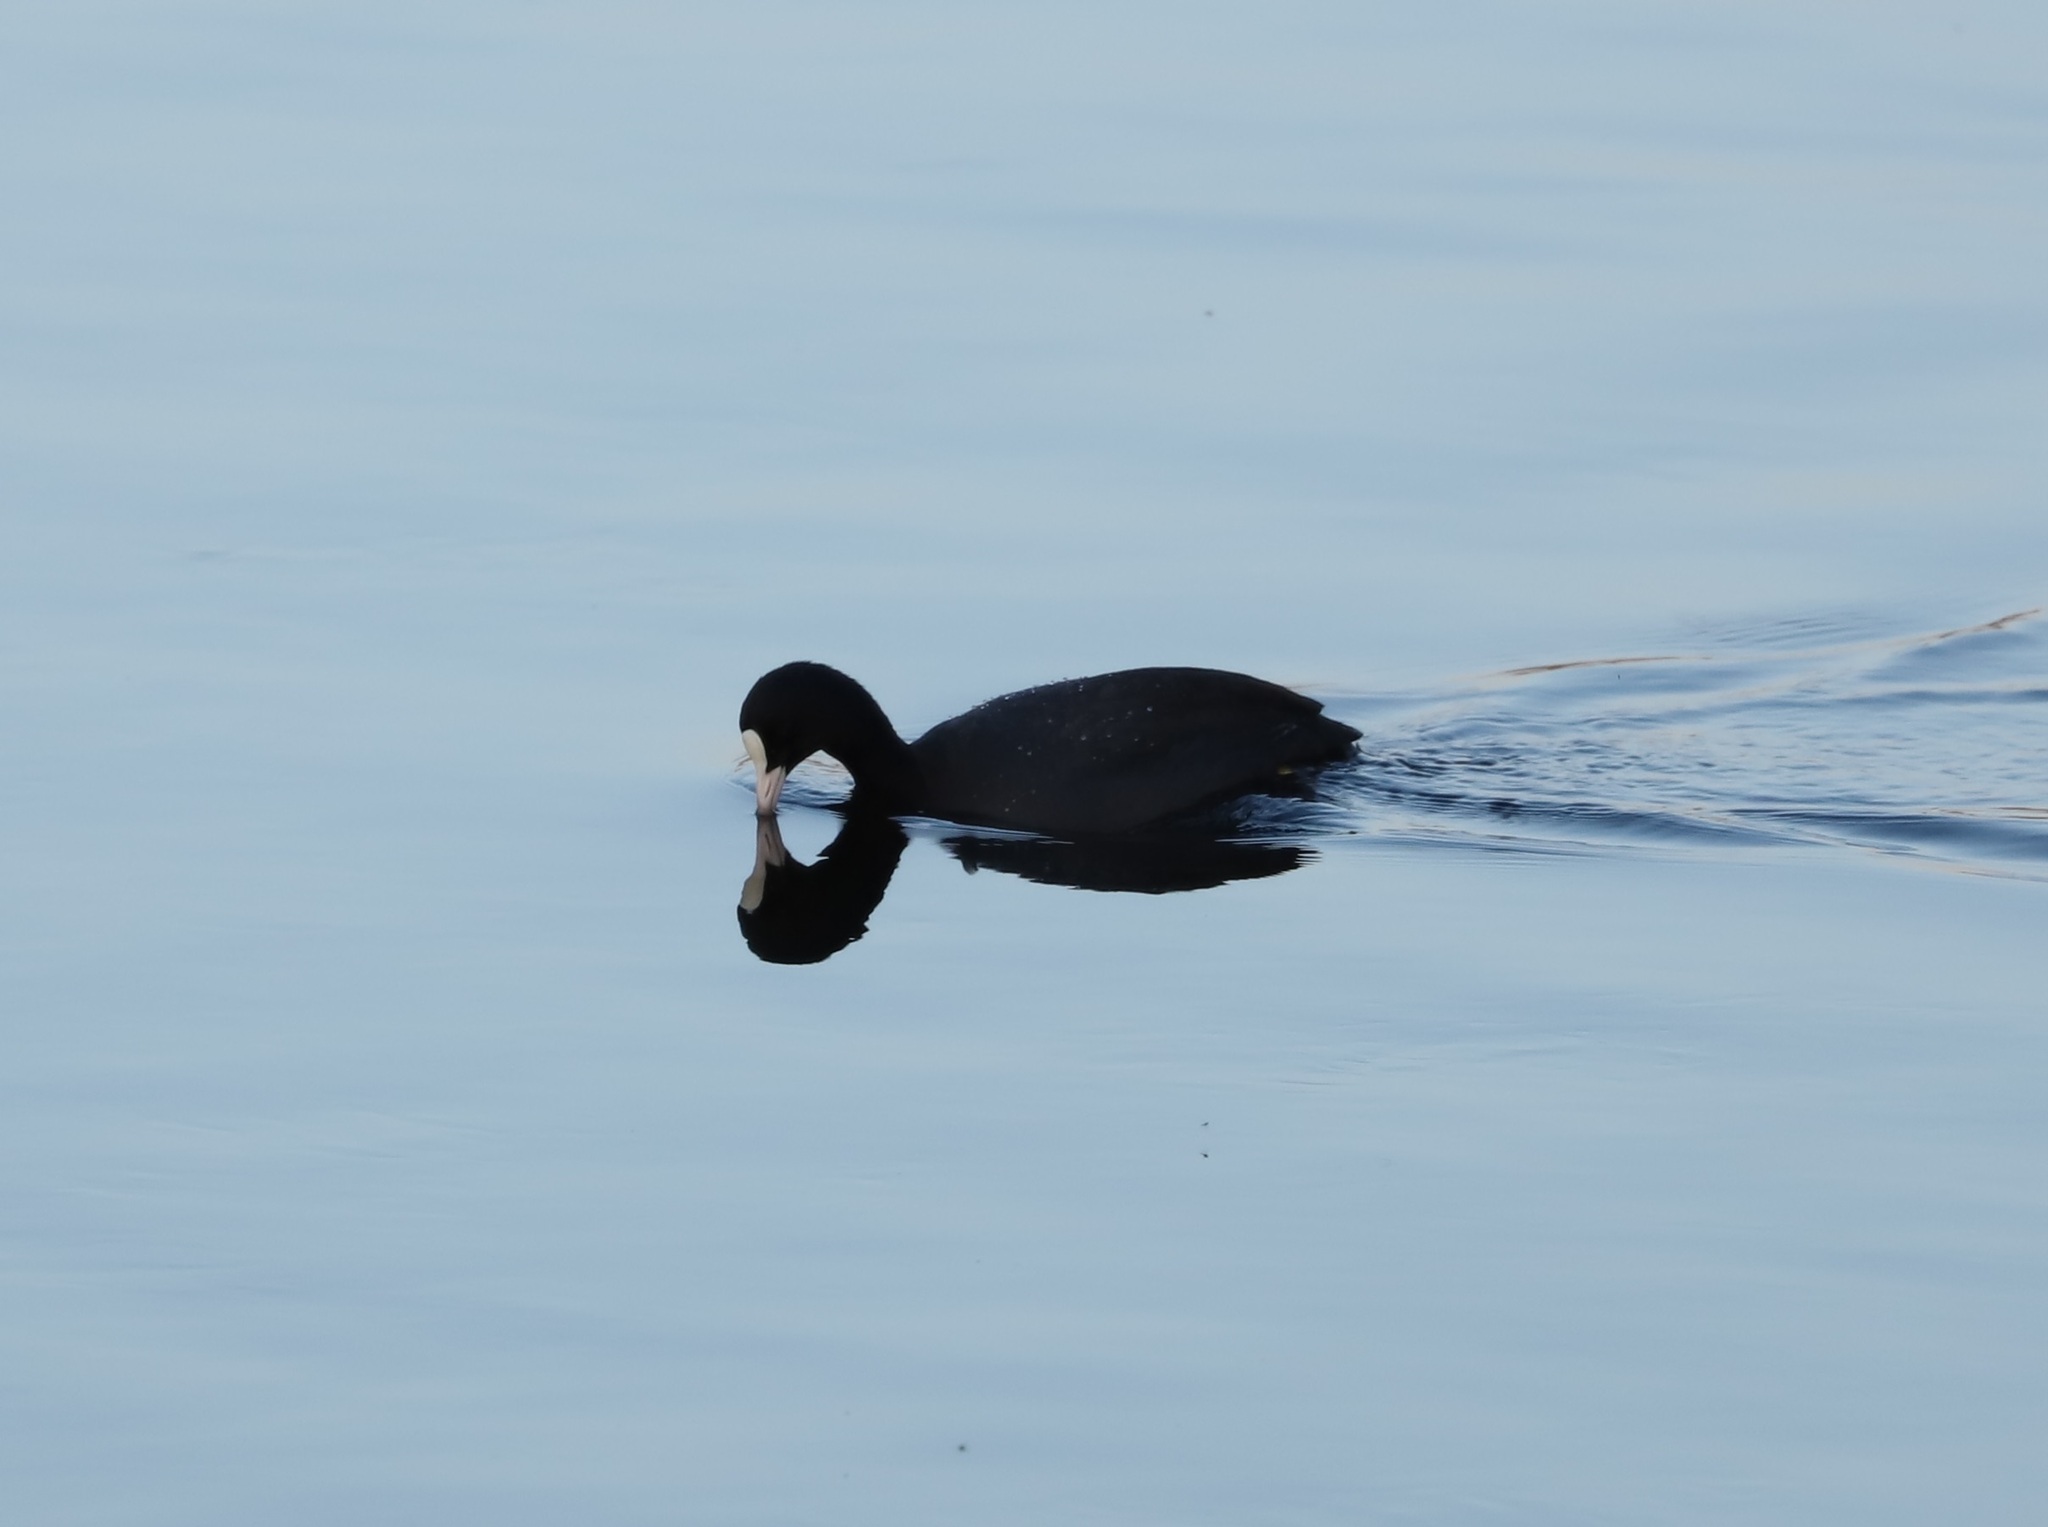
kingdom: Animalia
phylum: Chordata
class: Aves
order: Gruiformes
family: Rallidae
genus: Fulica
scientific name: Fulica atra
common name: Eurasian coot
